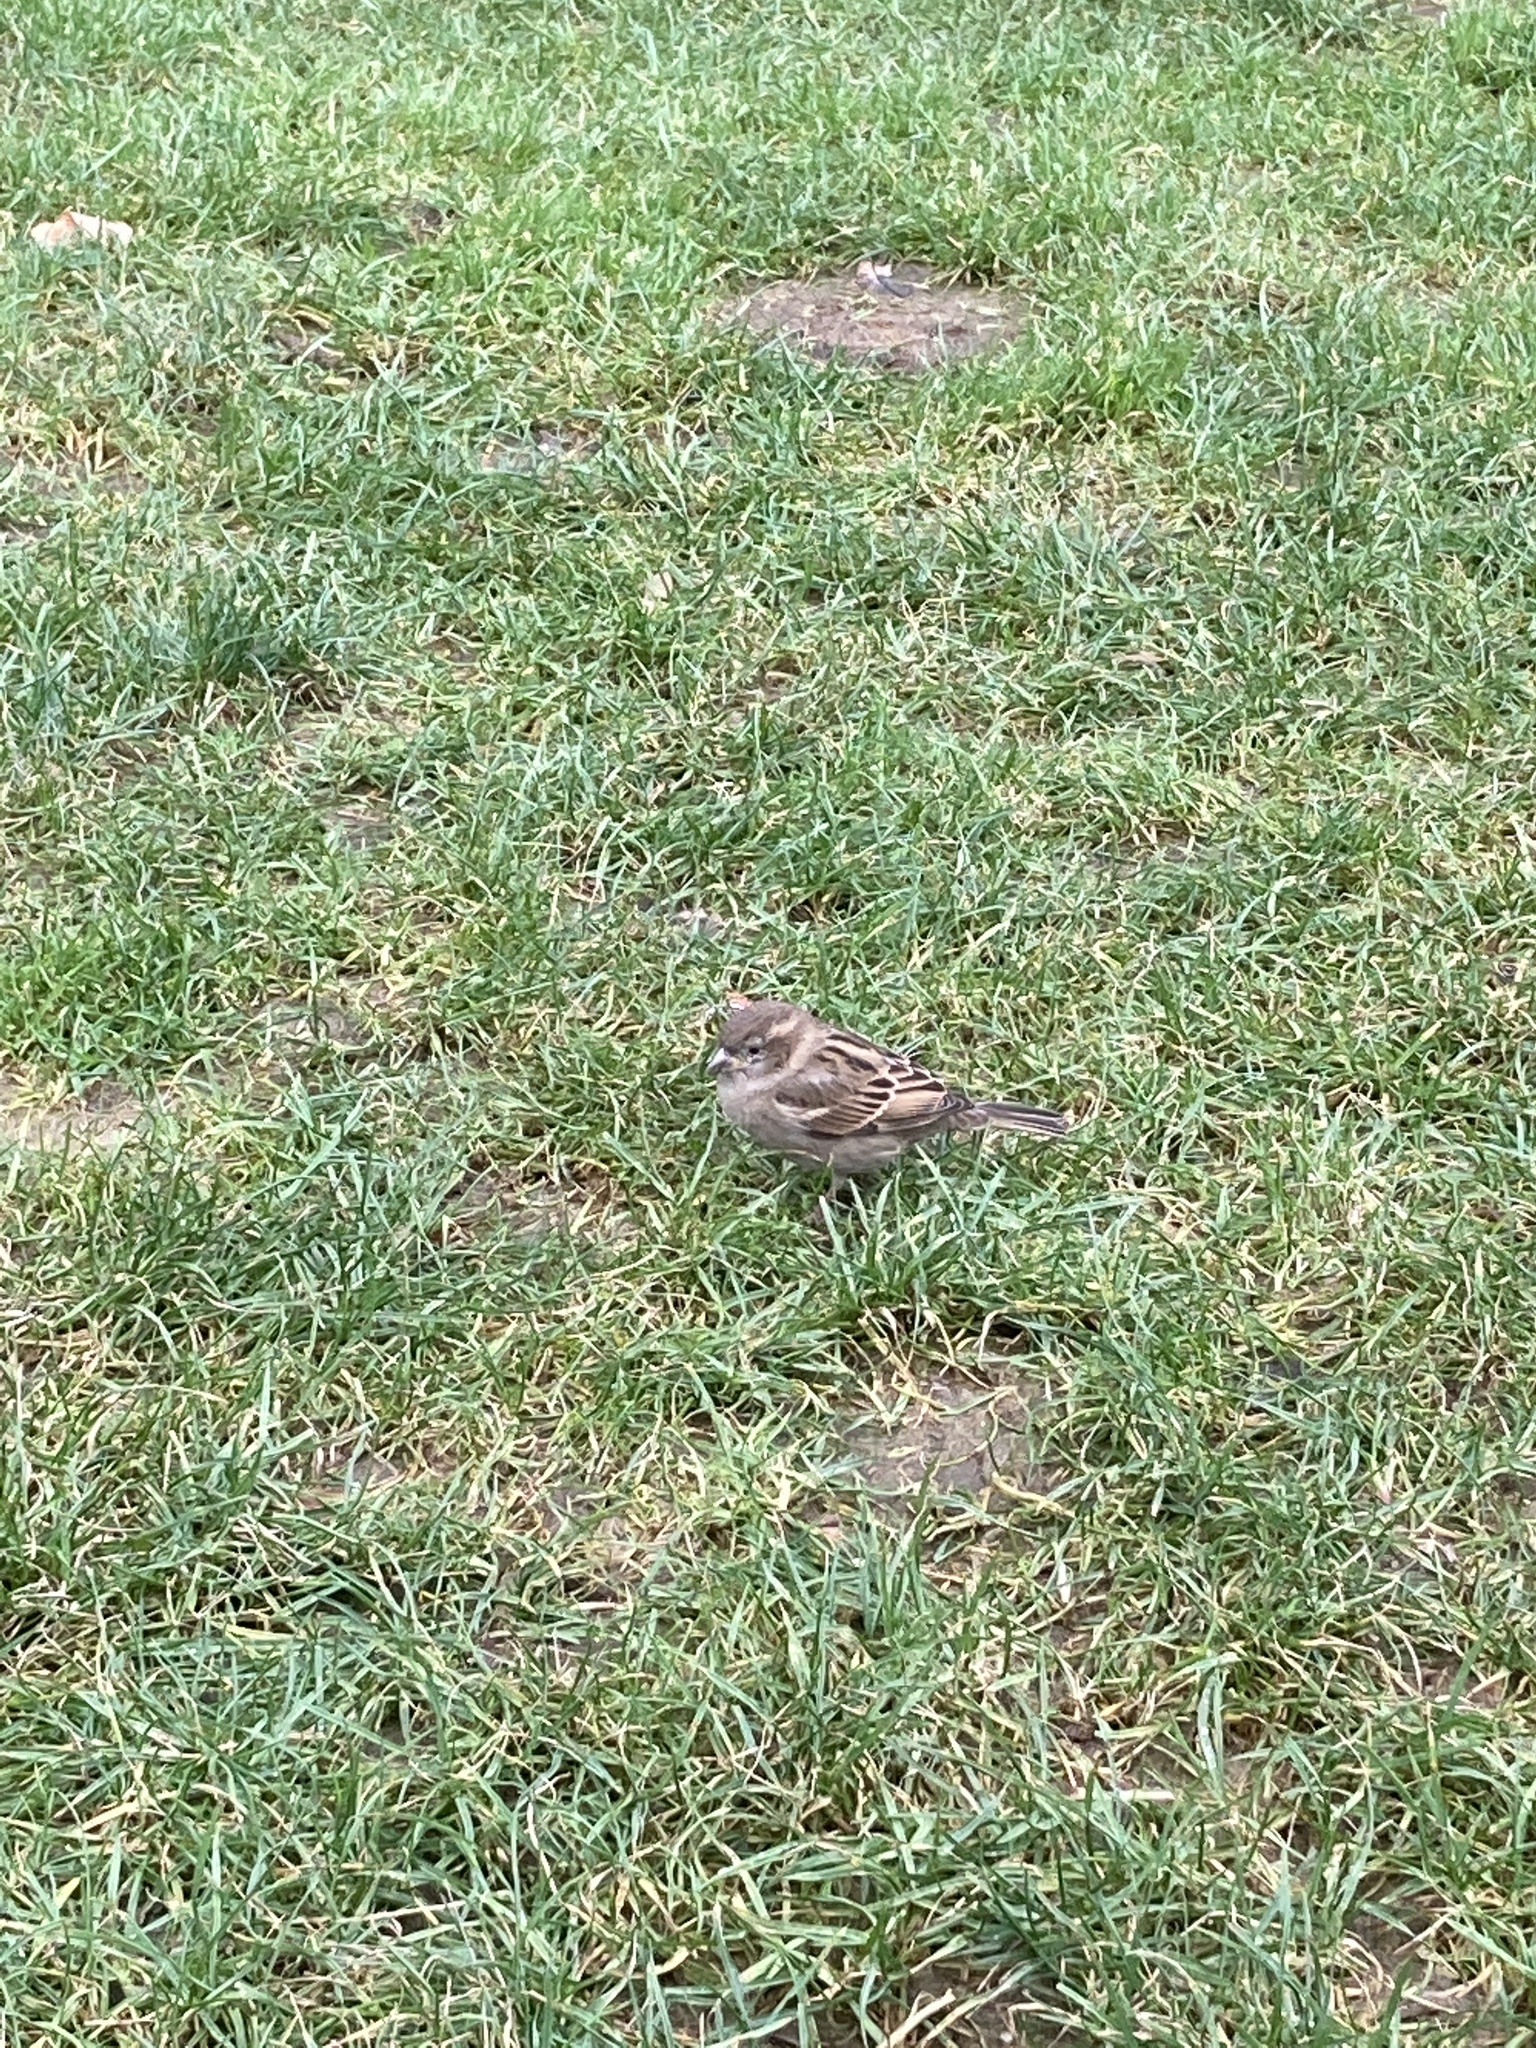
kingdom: Animalia
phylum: Chordata
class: Aves
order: Passeriformes
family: Passeridae
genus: Passer
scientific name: Passer domesticus
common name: House sparrow
